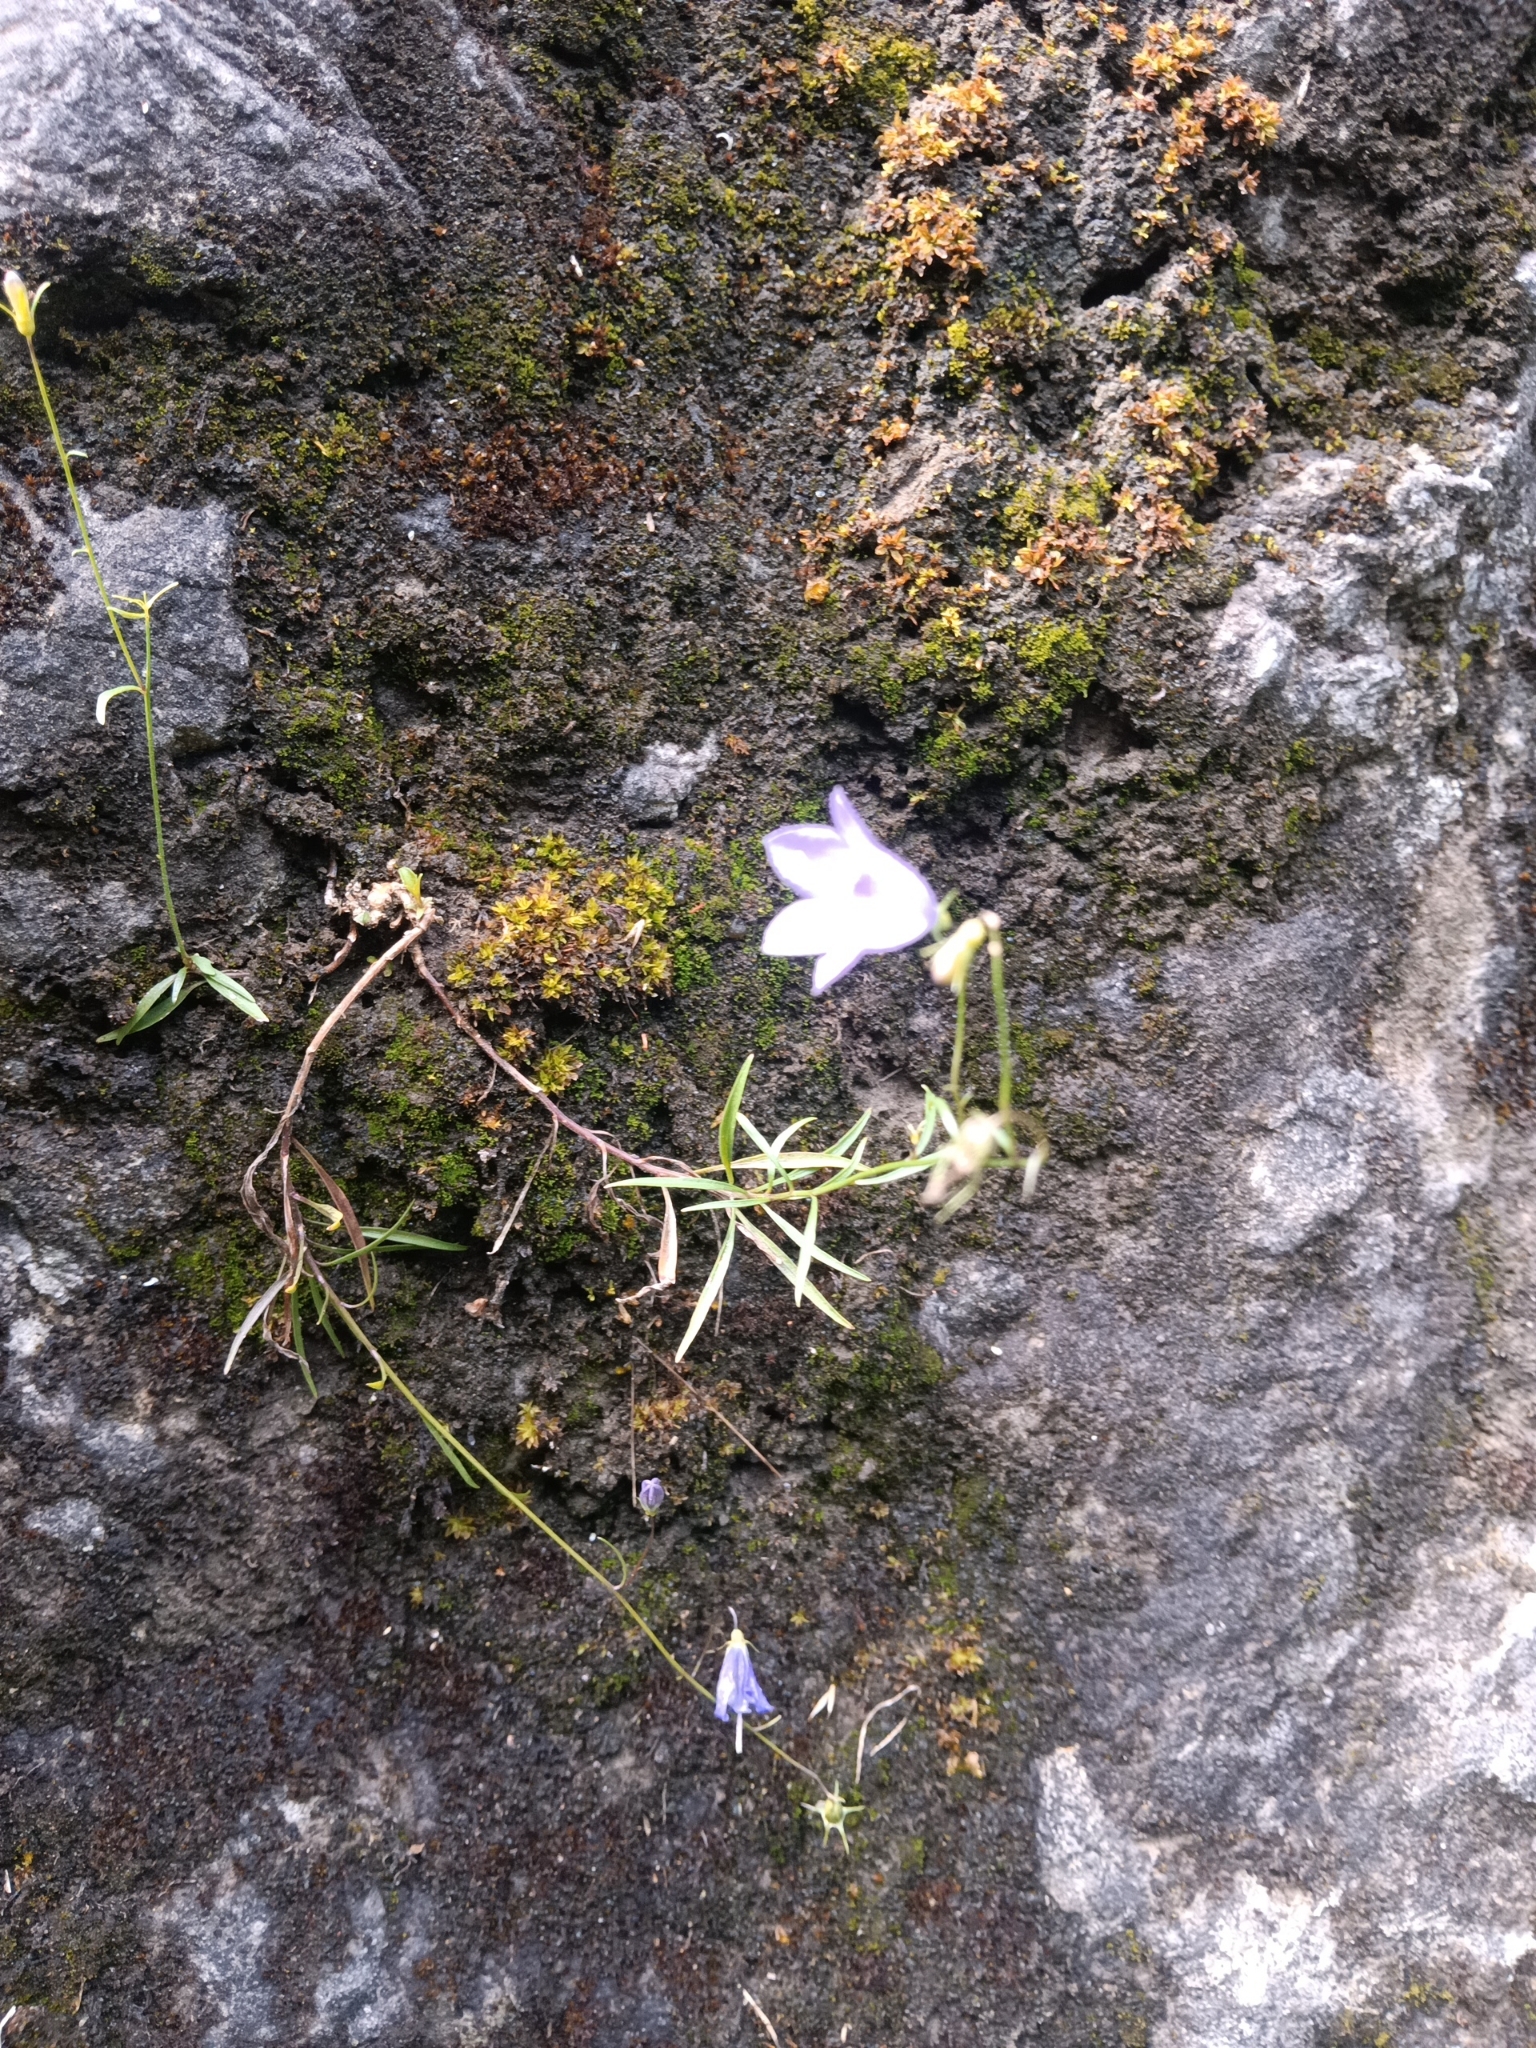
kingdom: Plantae
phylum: Tracheophyta
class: Magnoliopsida
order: Asterales
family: Campanulaceae
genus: Campanula
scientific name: Campanula rotundifolia
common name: Harebell
